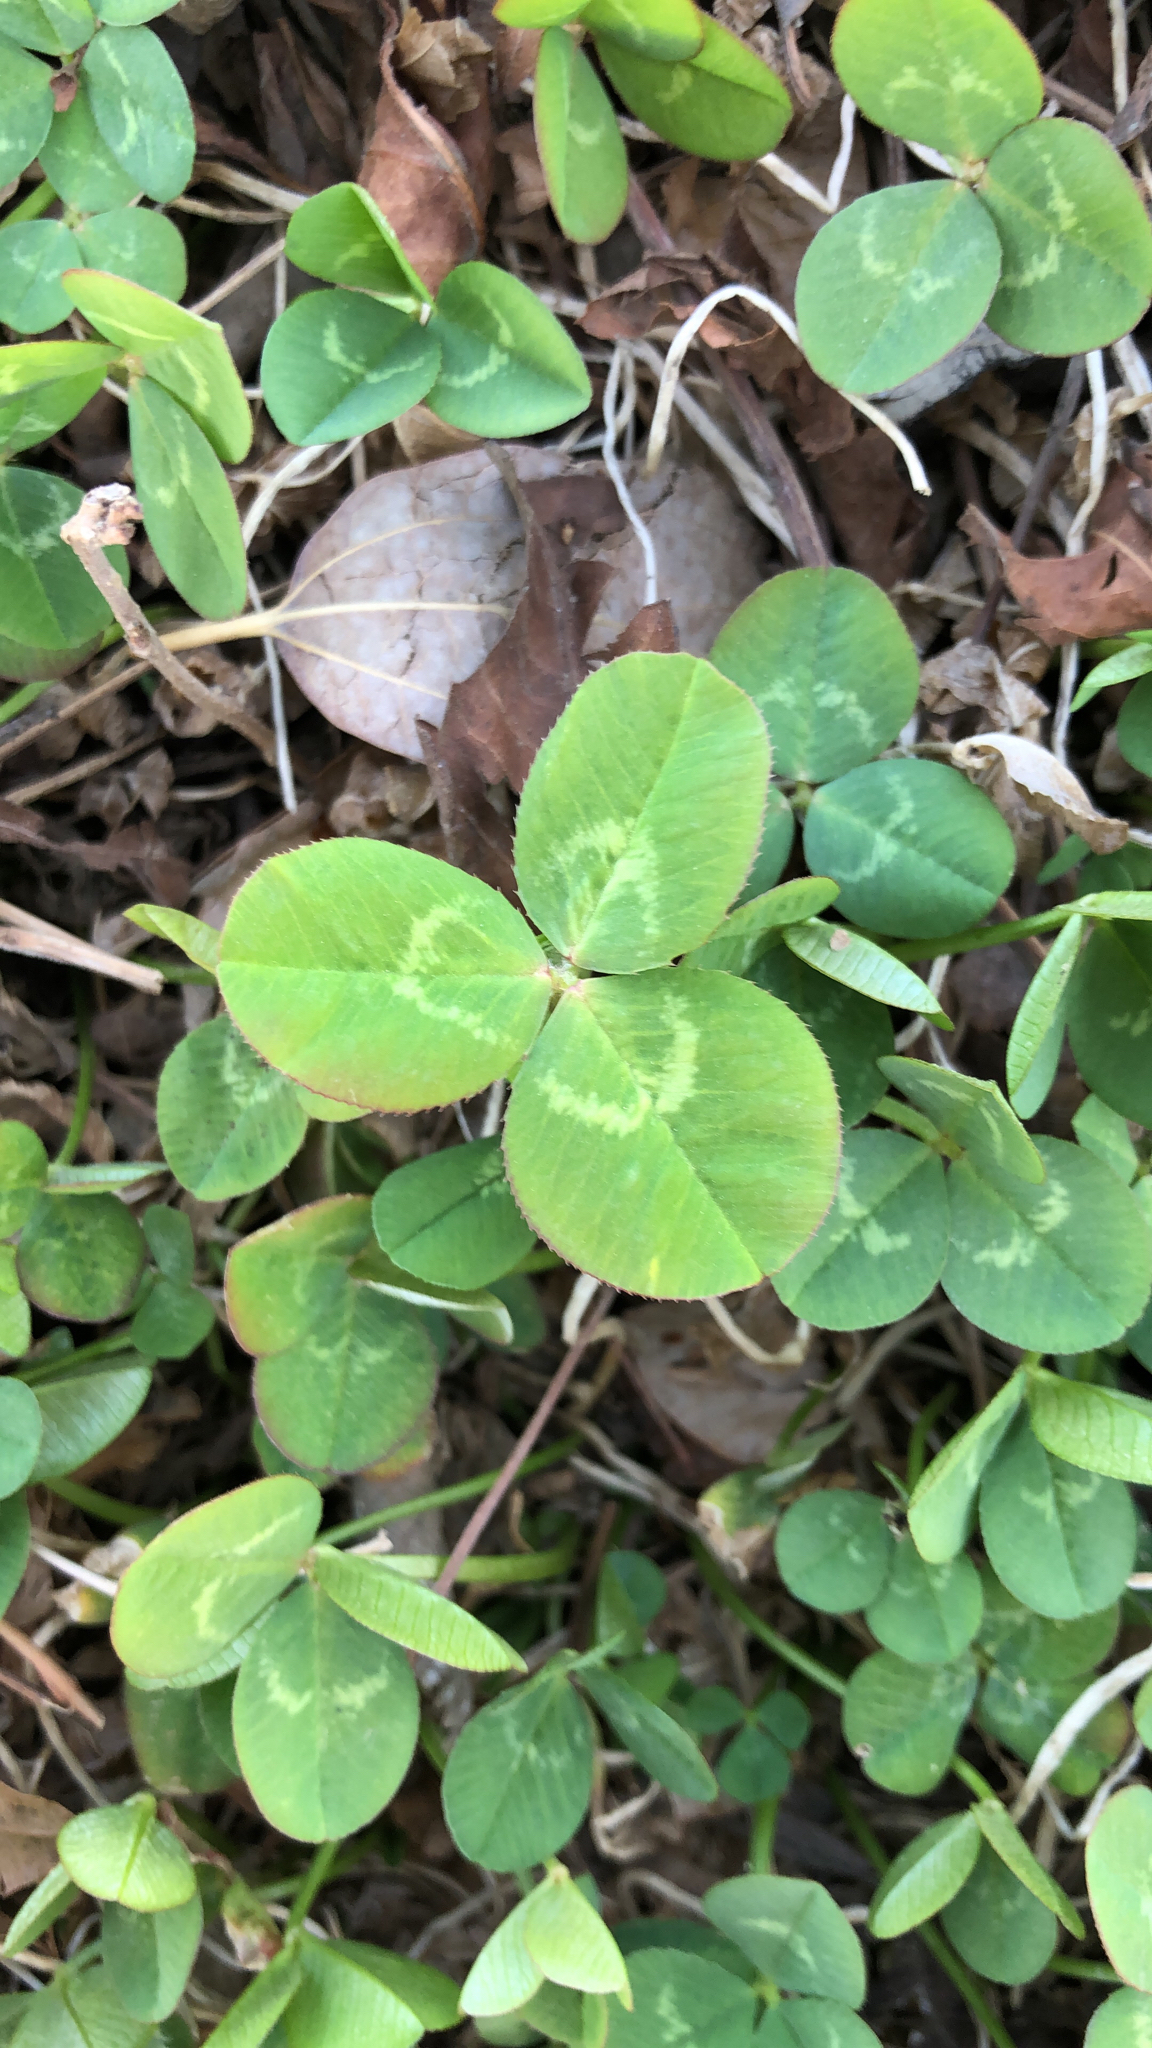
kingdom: Plantae
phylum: Tracheophyta
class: Magnoliopsida
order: Fabales
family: Fabaceae
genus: Trifolium
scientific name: Trifolium repens
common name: White clover
